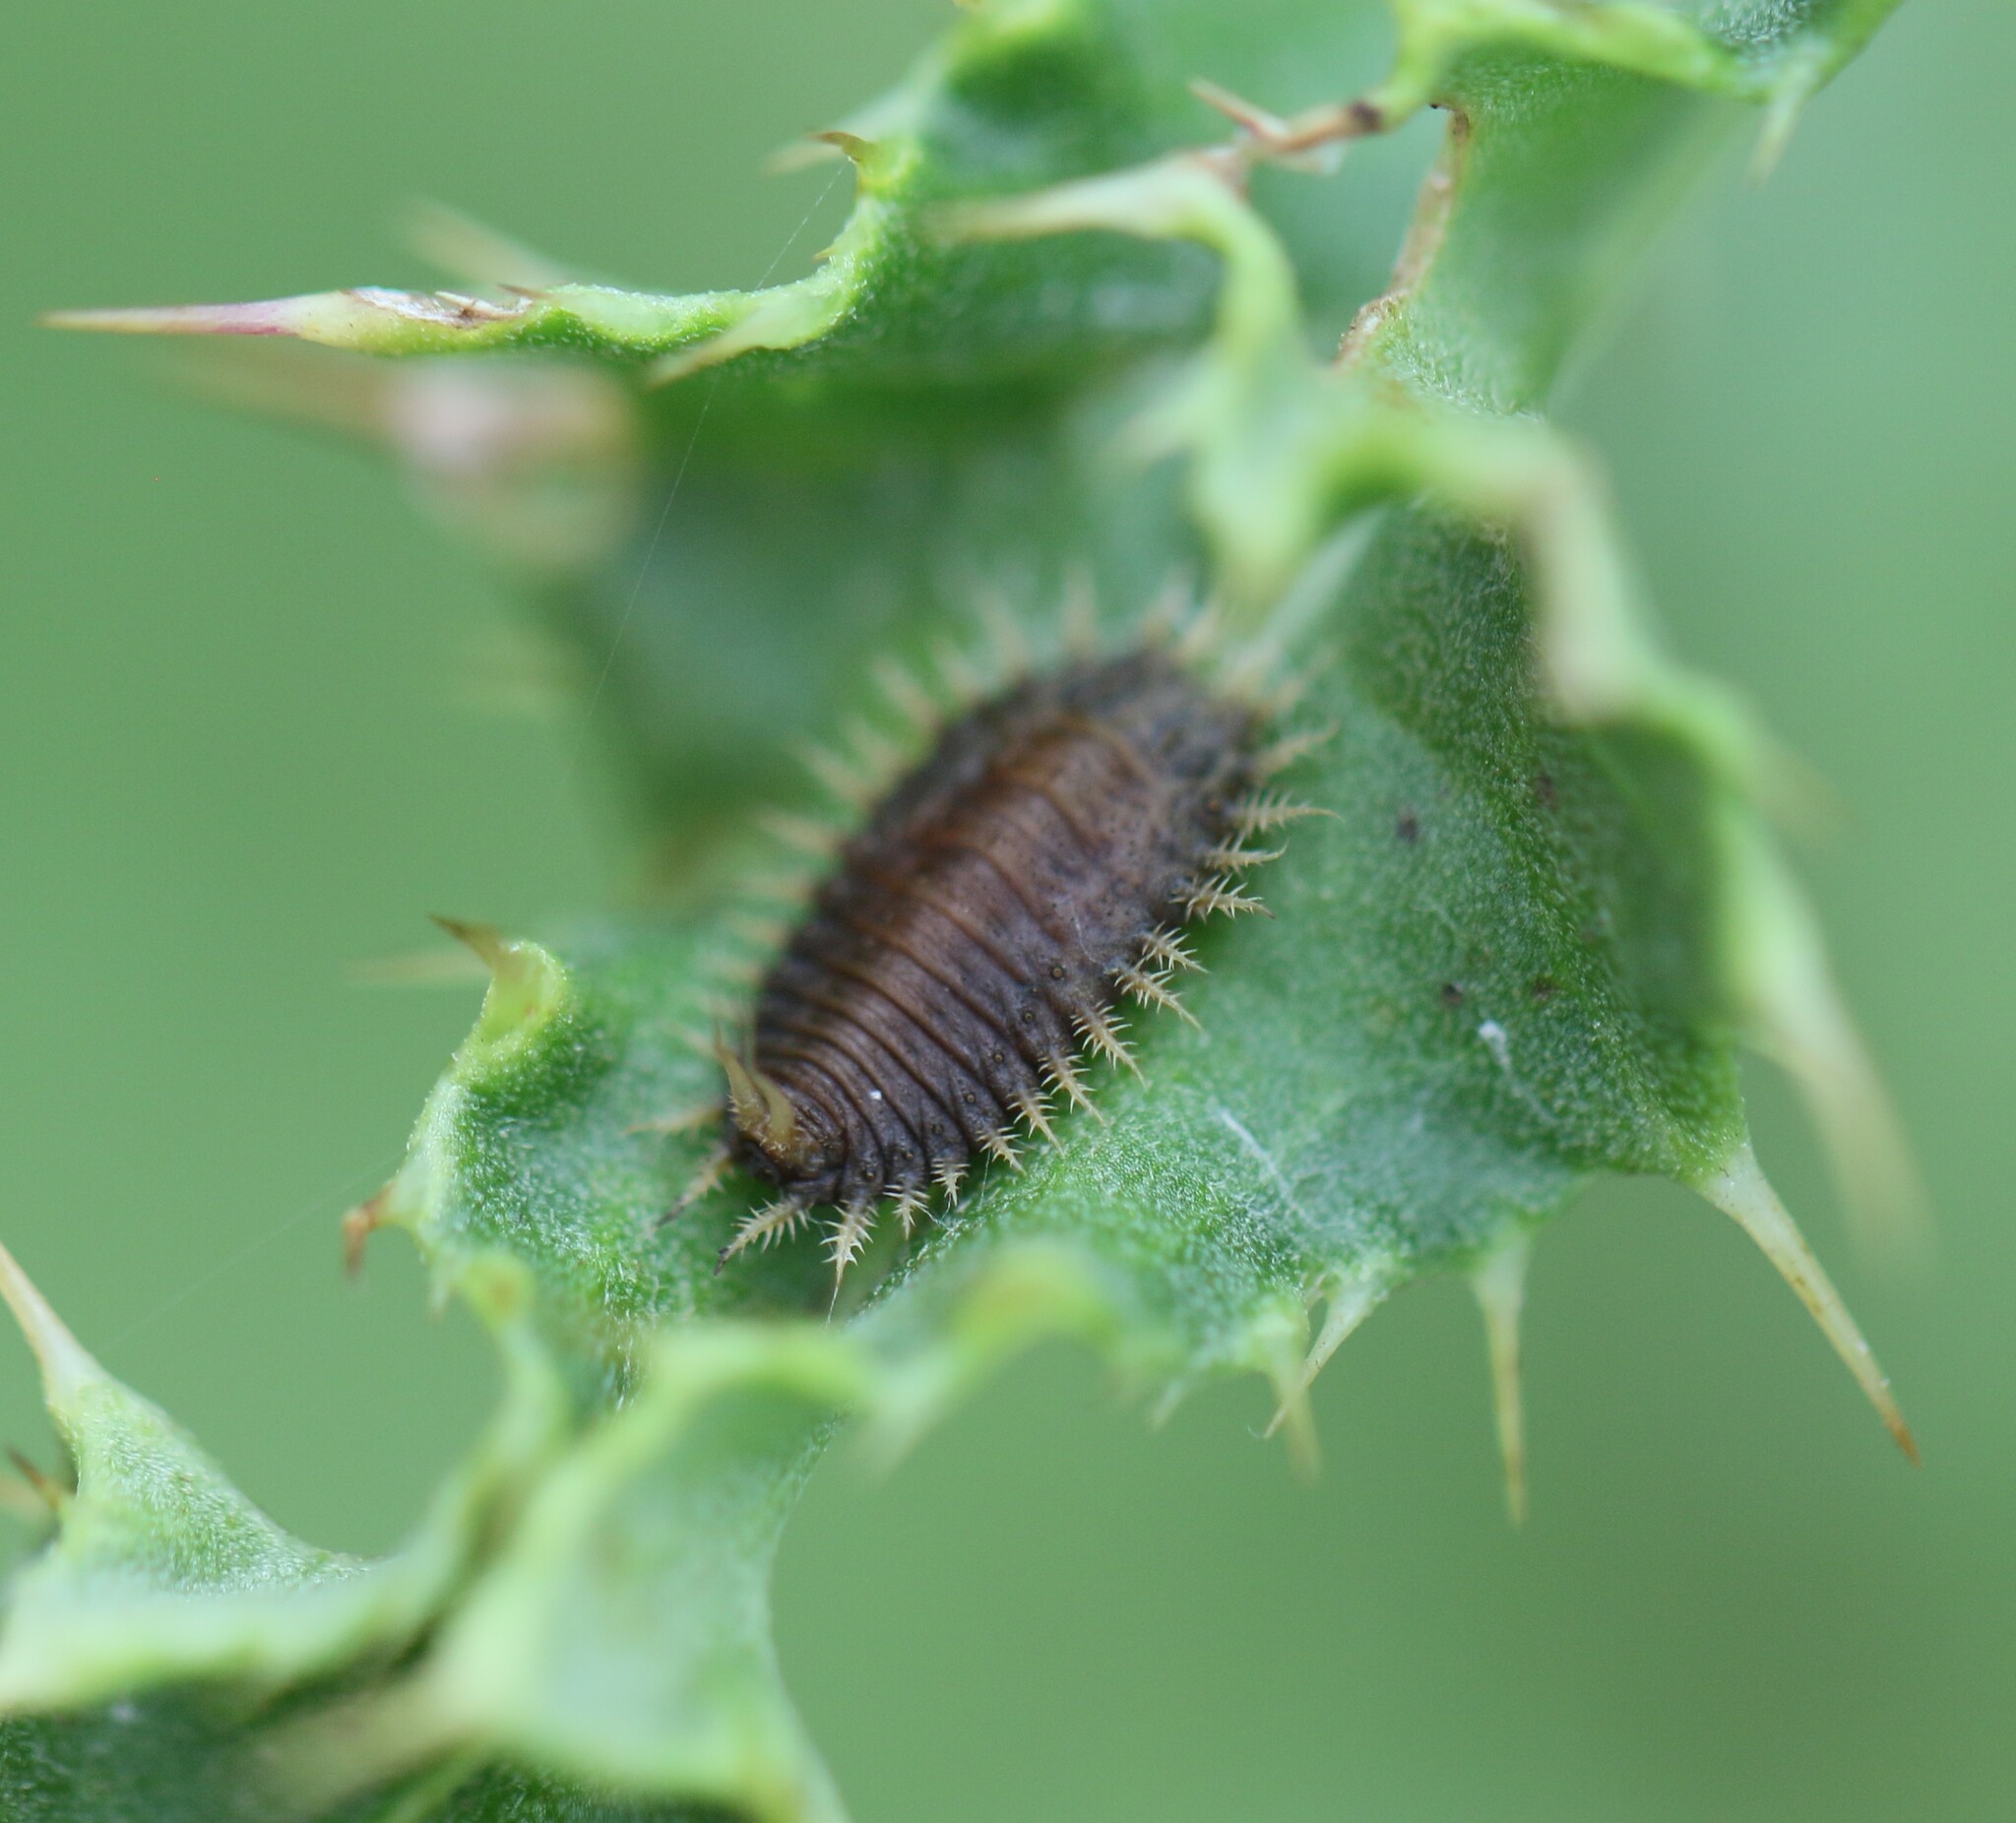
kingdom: Animalia
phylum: Arthropoda
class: Insecta
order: Coleoptera
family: Chrysomelidae
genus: Cassida
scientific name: Cassida rubiginosa
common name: Thistle tortoise beetle
